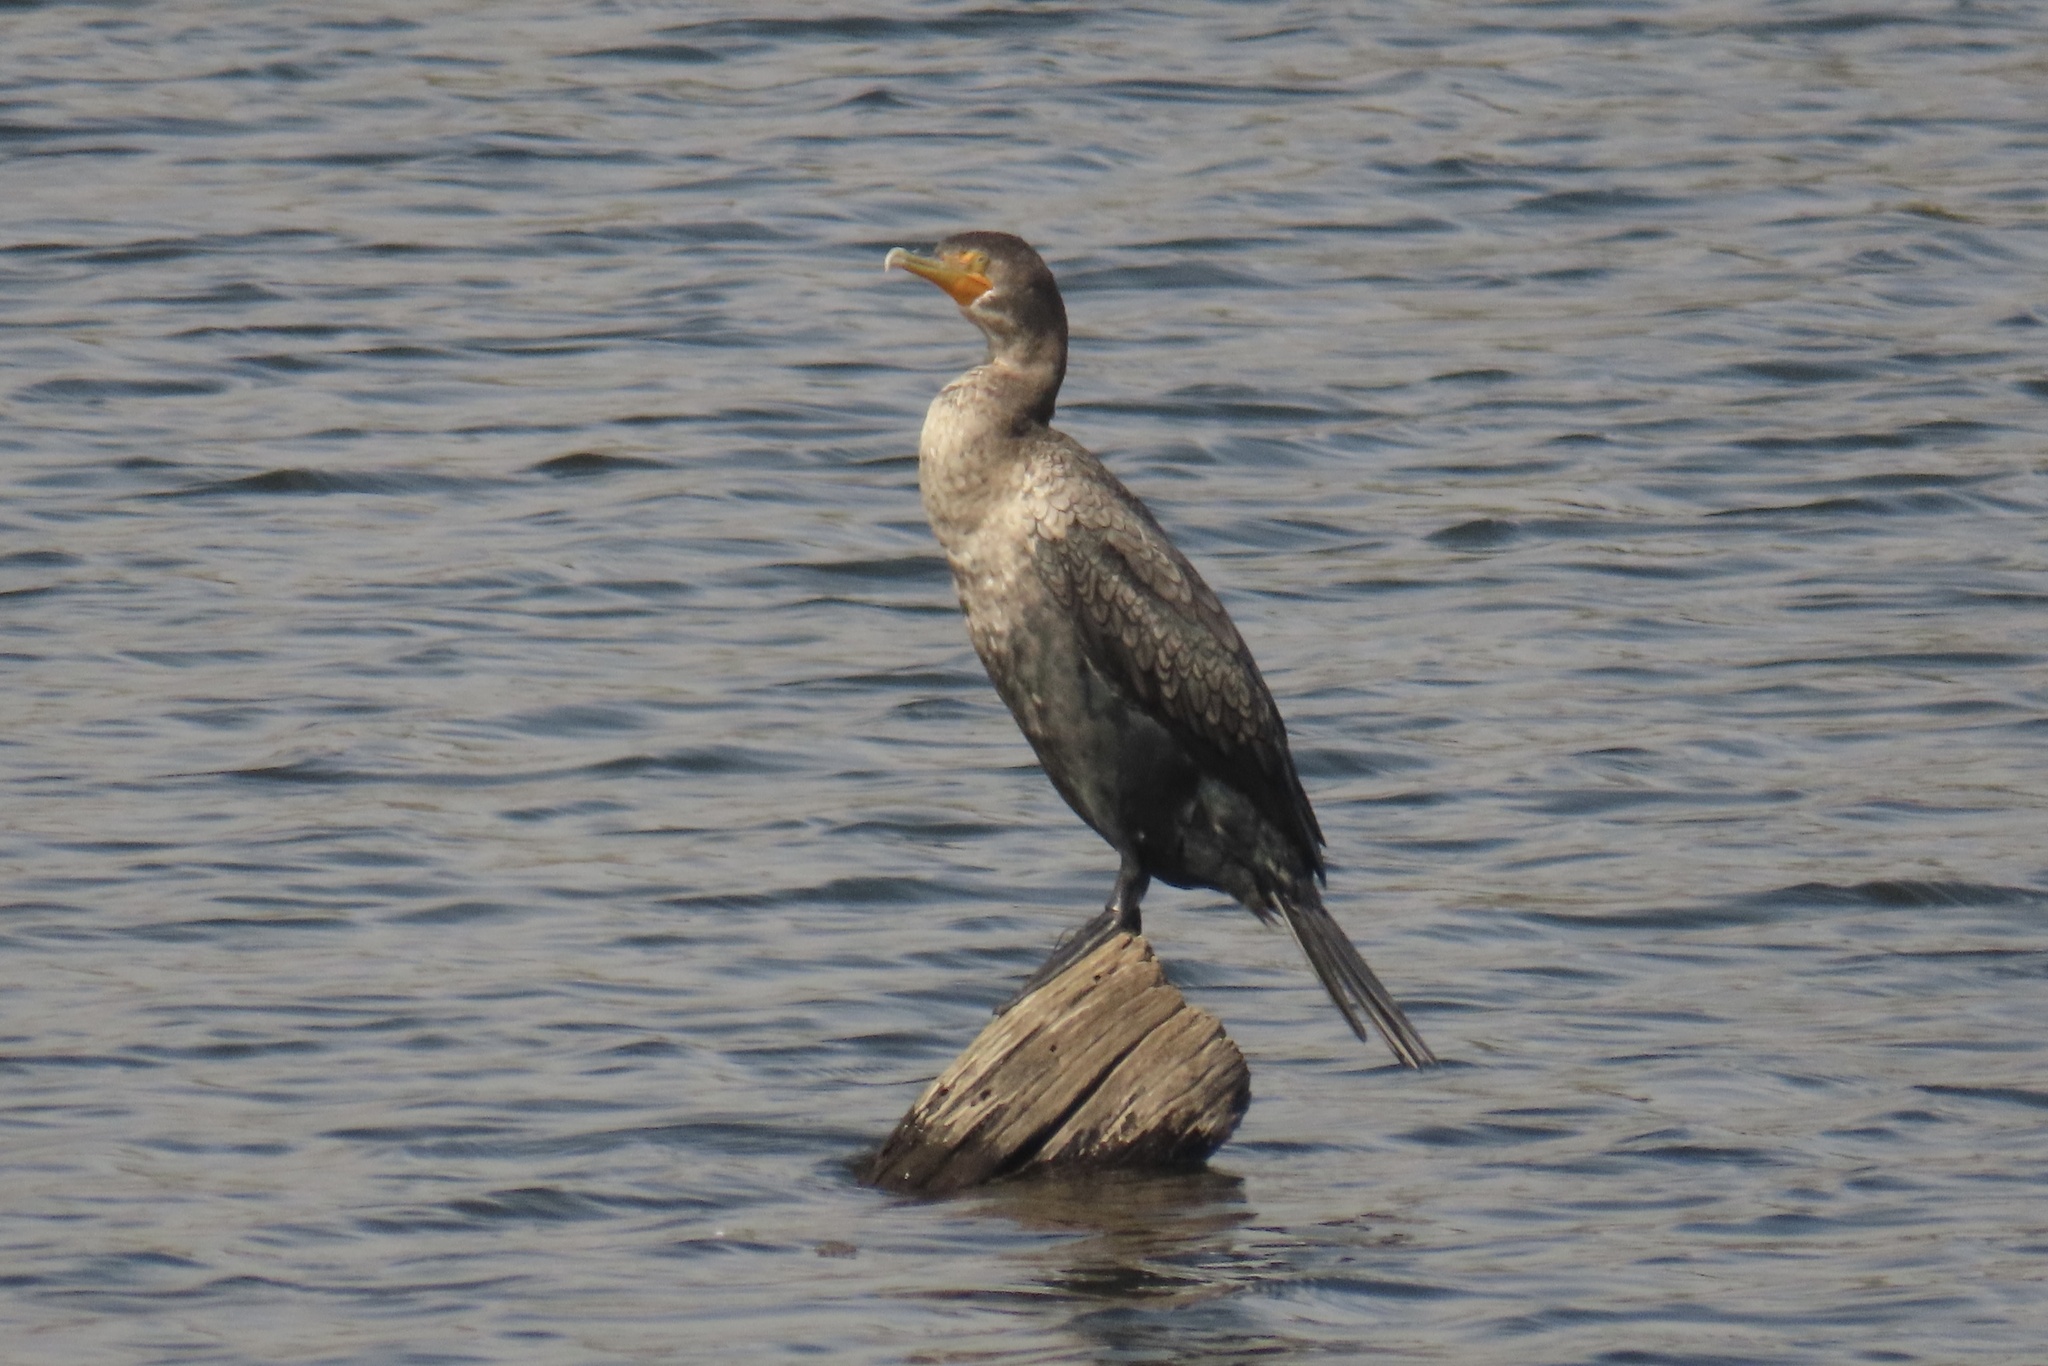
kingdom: Animalia
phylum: Chordata
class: Aves
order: Suliformes
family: Phalacrocoracidae
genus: Phalacrocorax
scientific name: Phalacrocorax auritus
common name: Double-crested cormorant
